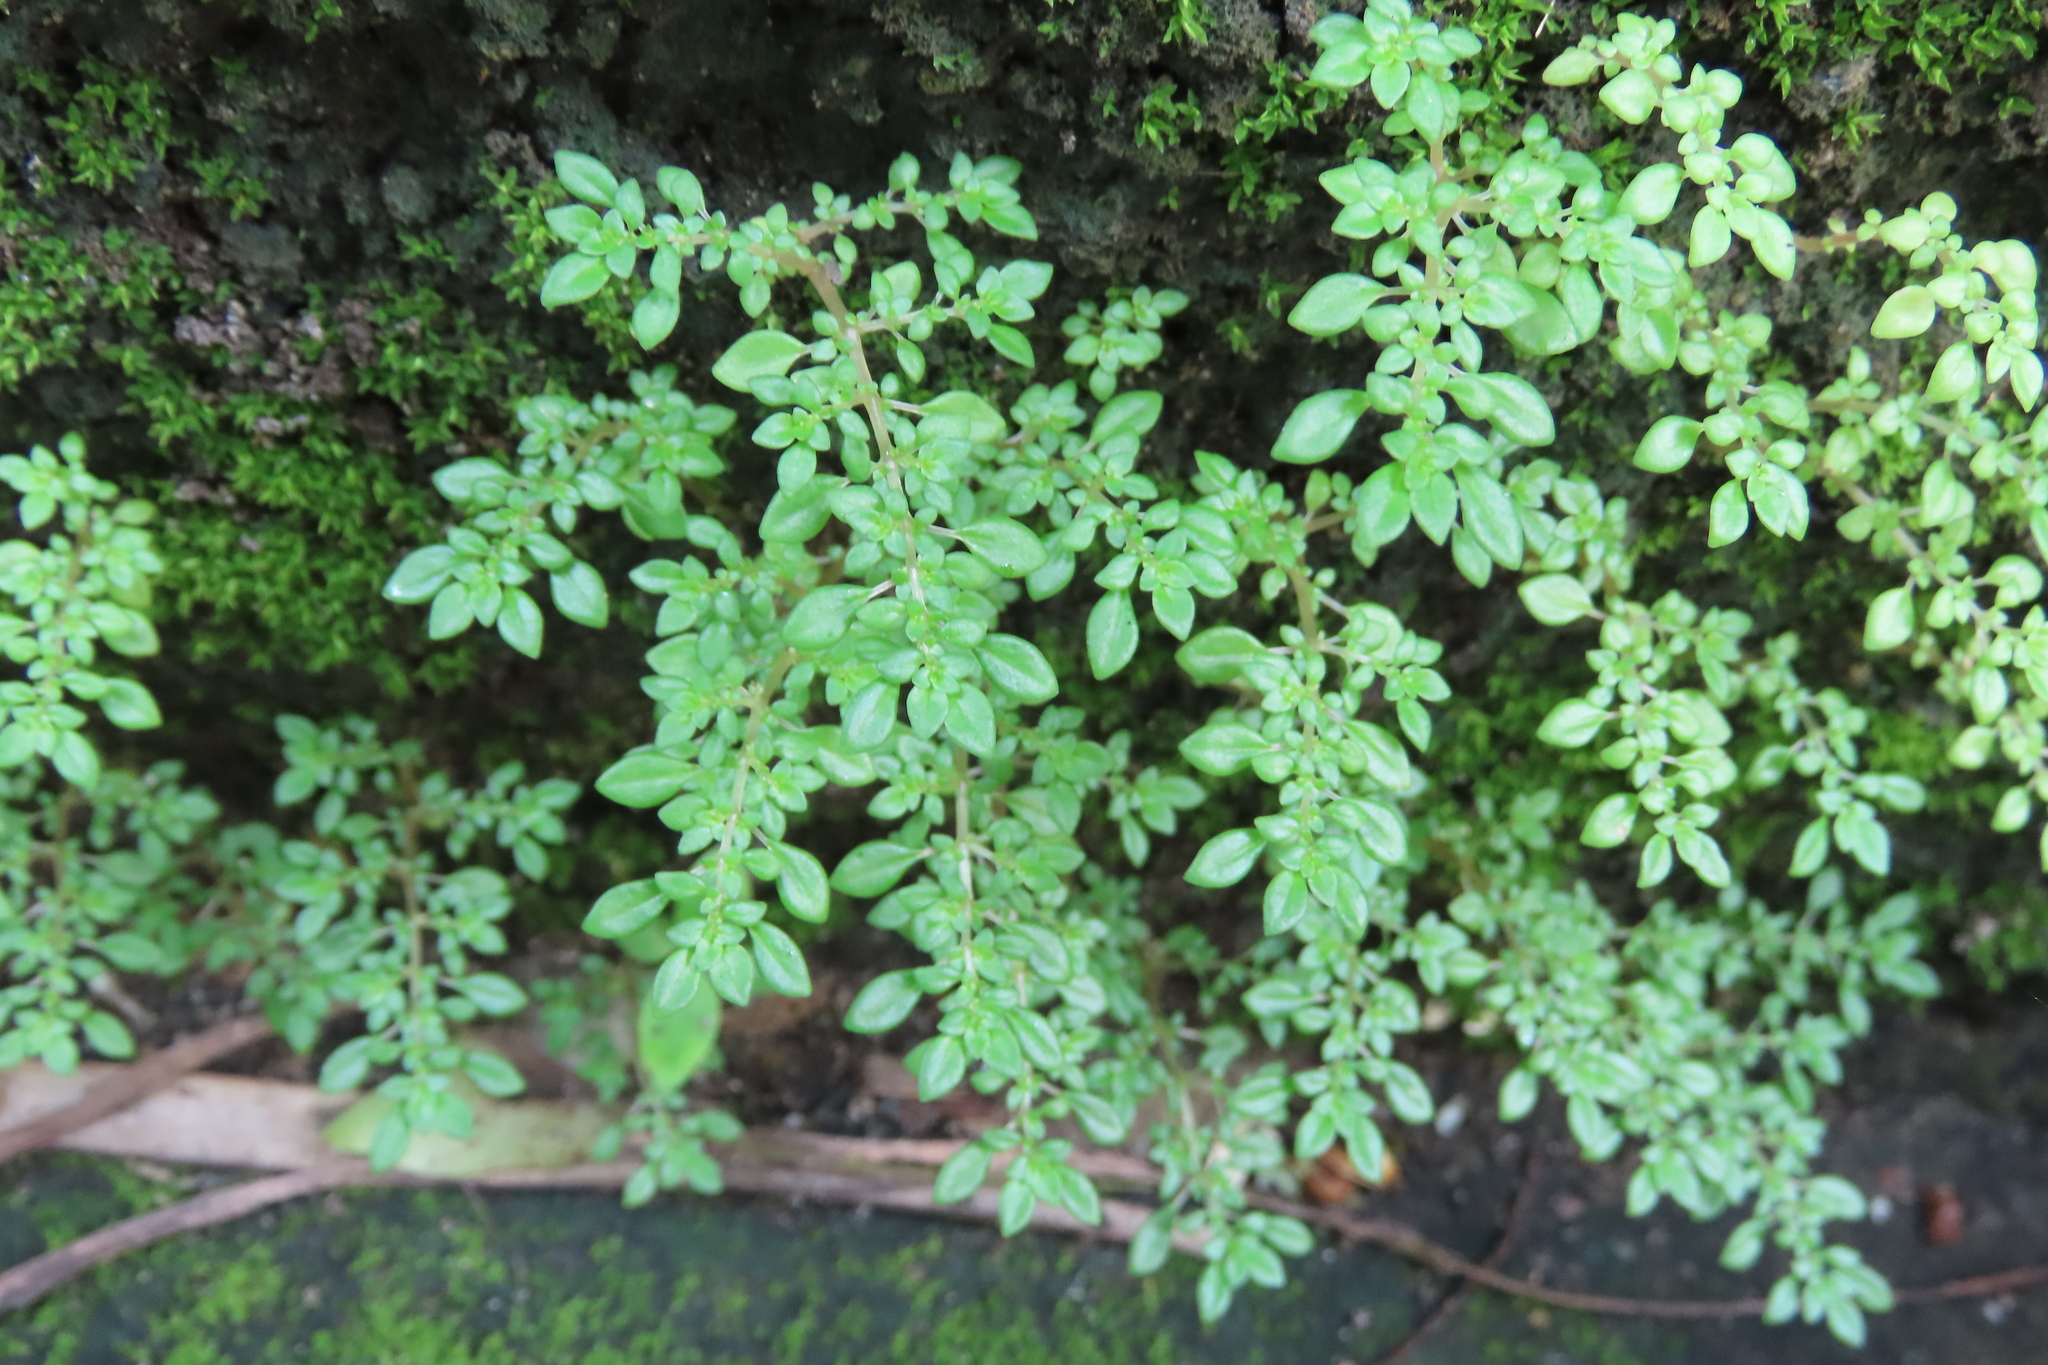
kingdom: Plantae
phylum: Tracheophyta
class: Magnoliopsida
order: Rosales
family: Urticaceae
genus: Pilea
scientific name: Pilea microphylla
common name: Artillery-plant
